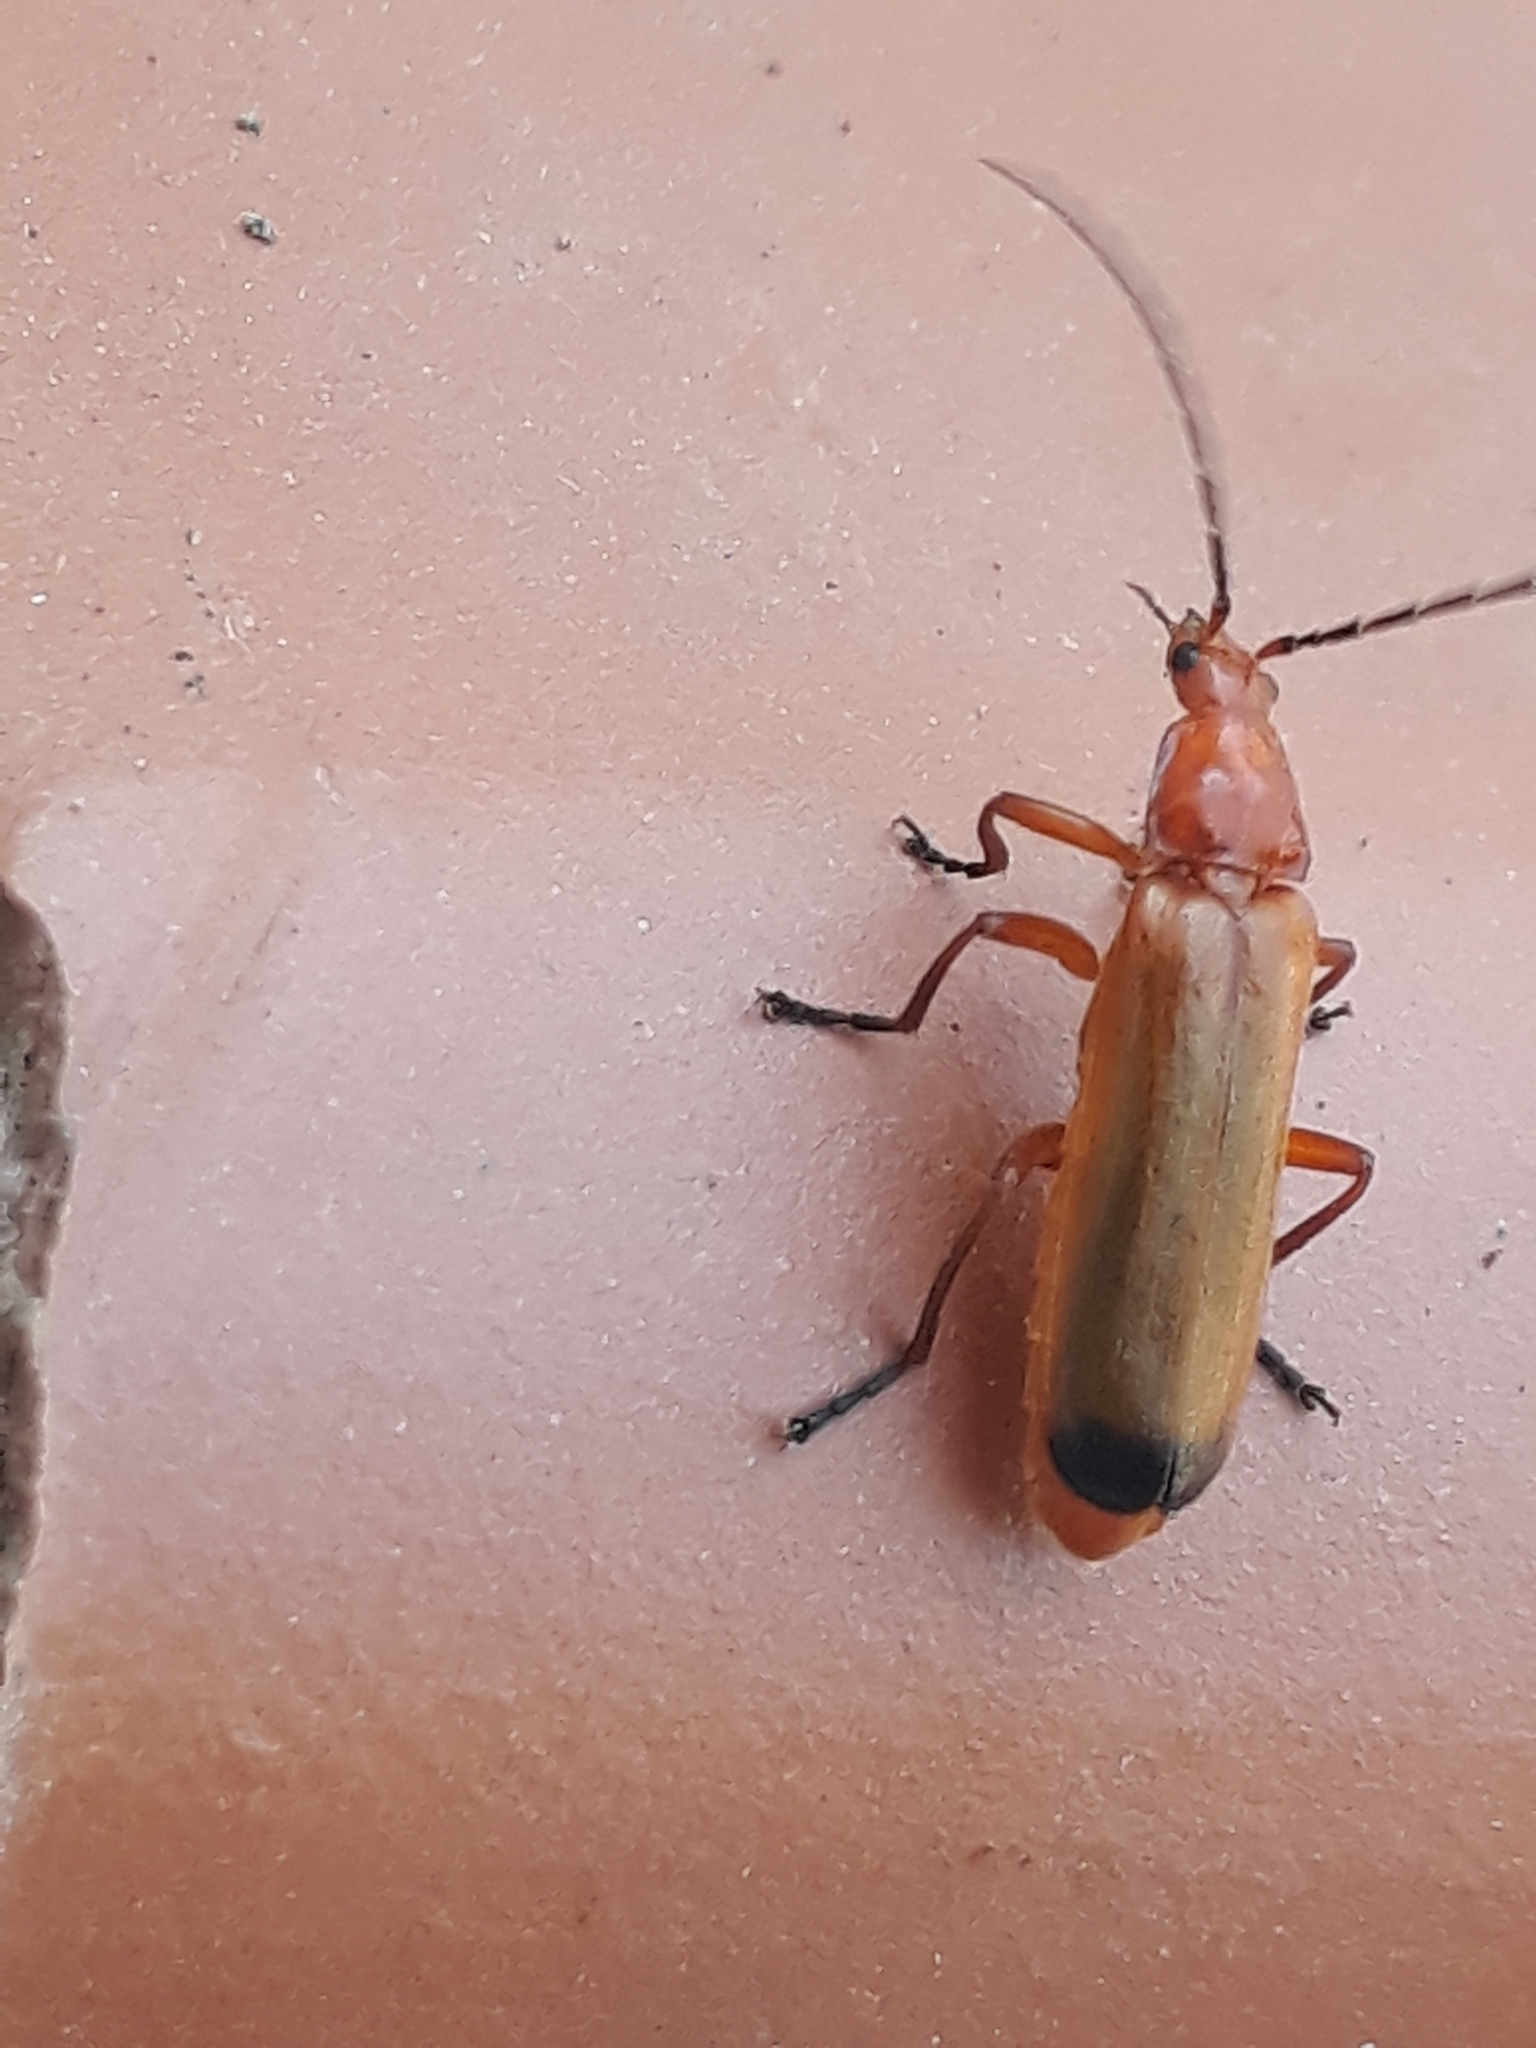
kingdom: Animalia
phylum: Arthropoda
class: Insecta
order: Coleoptera
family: Cantharidae
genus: Rhagonycha
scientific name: Rhagonycha fulva
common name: Common red soldier beetle
